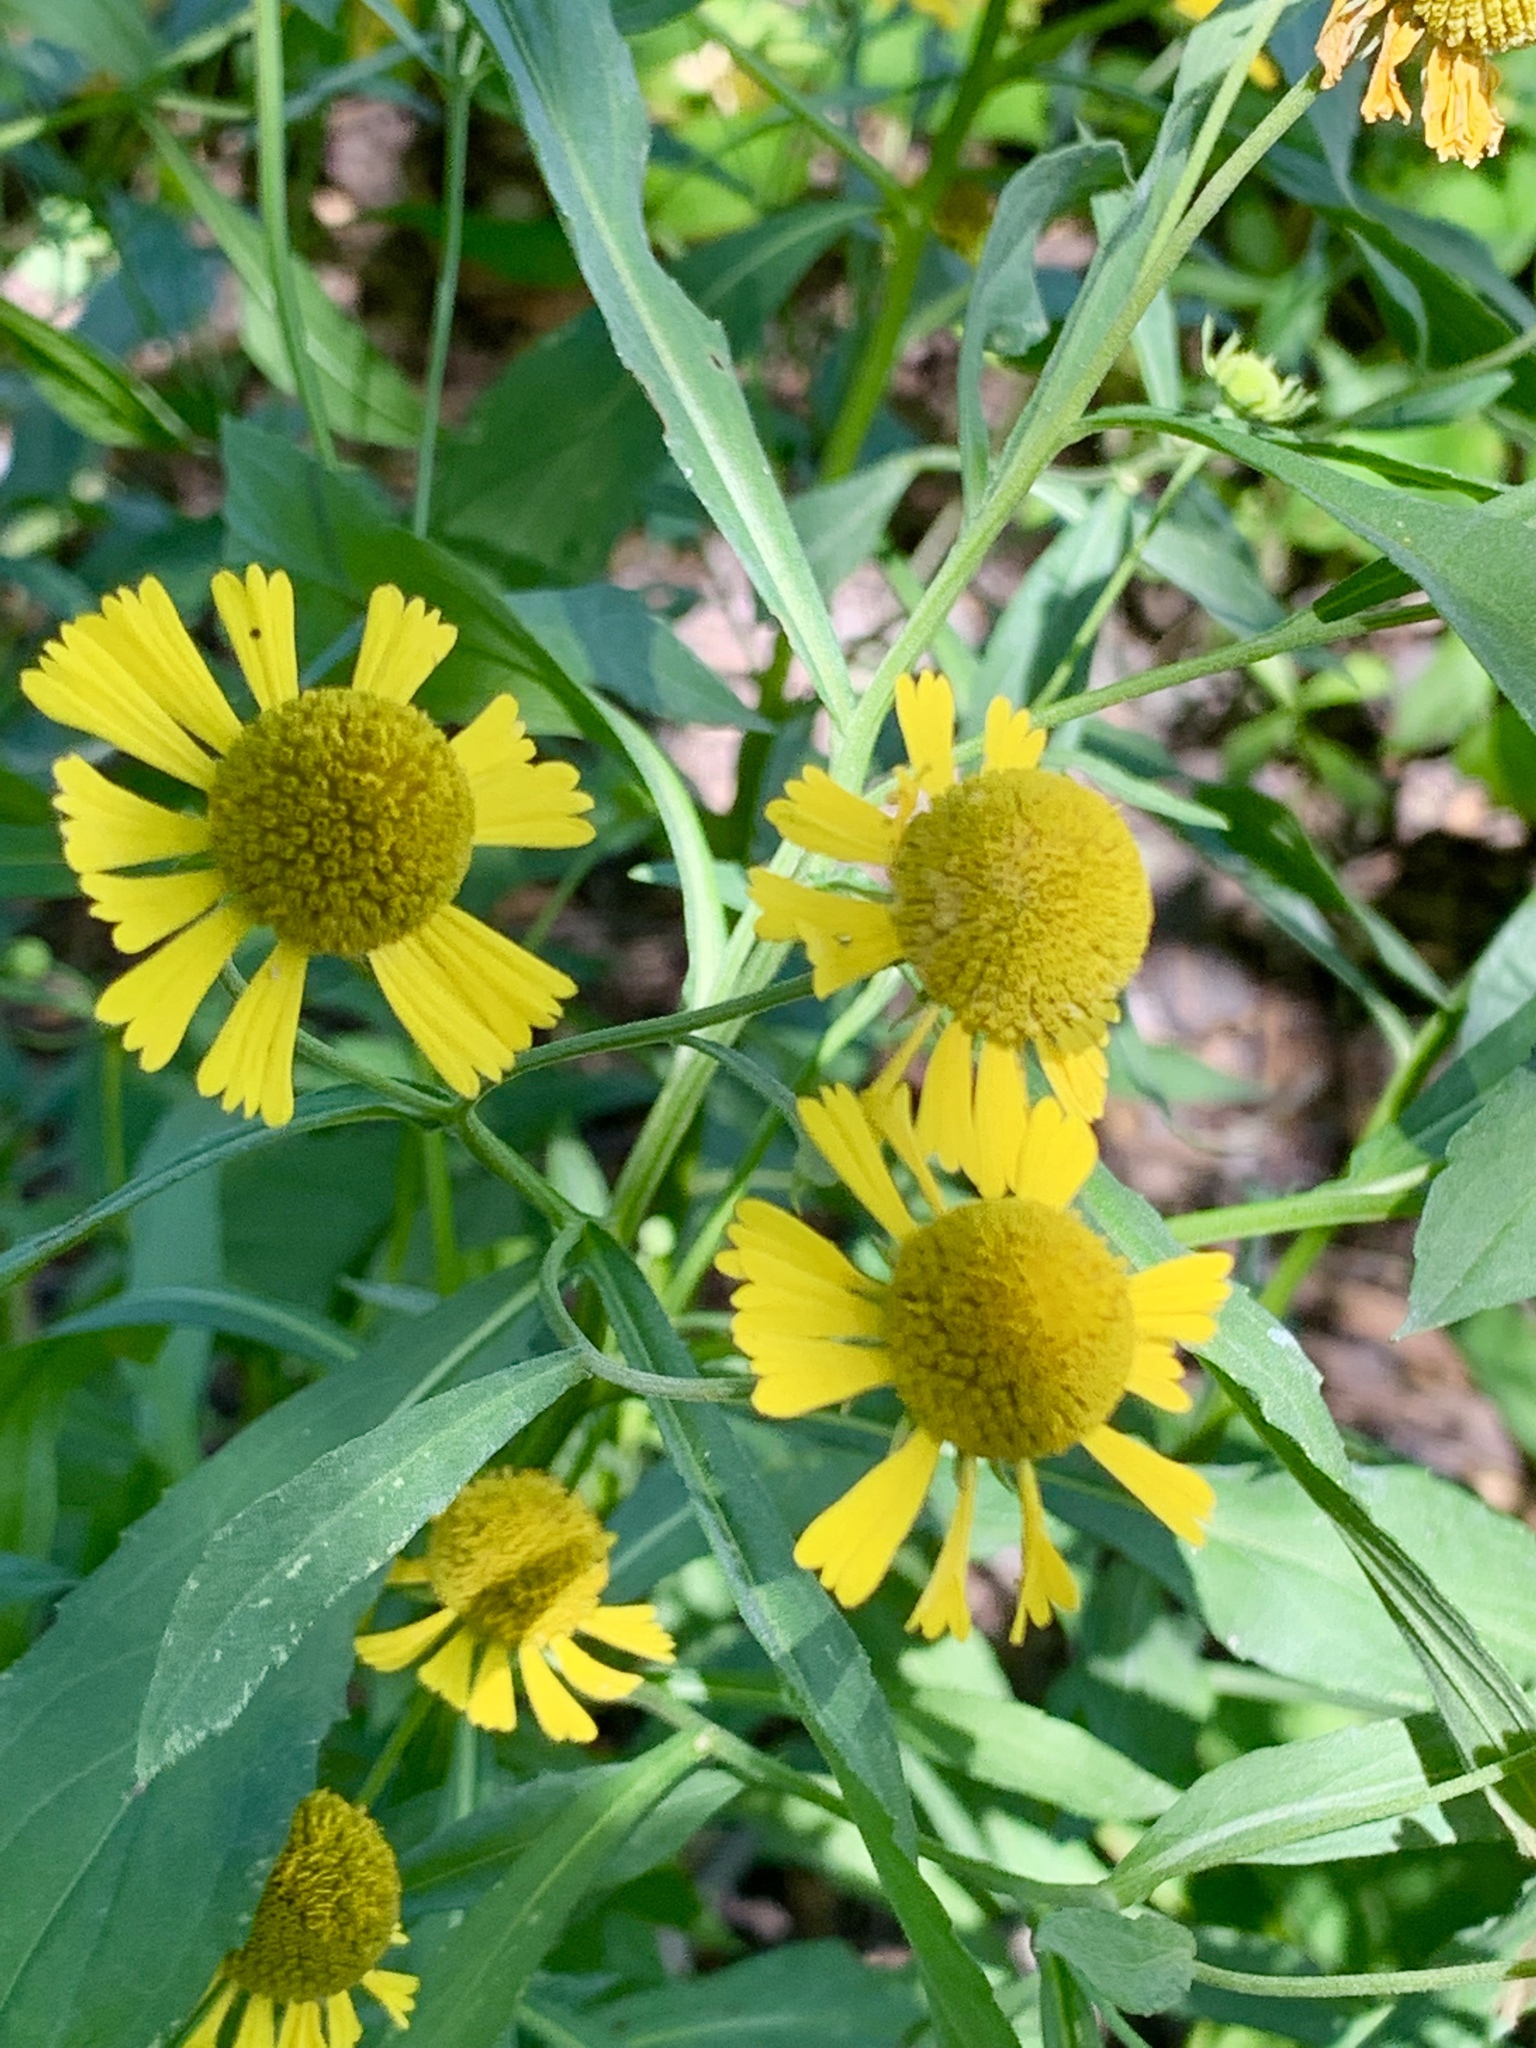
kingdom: Plantae
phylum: Tracheophyta
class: Magnoliopsida
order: Asterales
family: Asteraceae
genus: Helenium
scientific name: Helenium autumnale
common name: Sneezeweed
